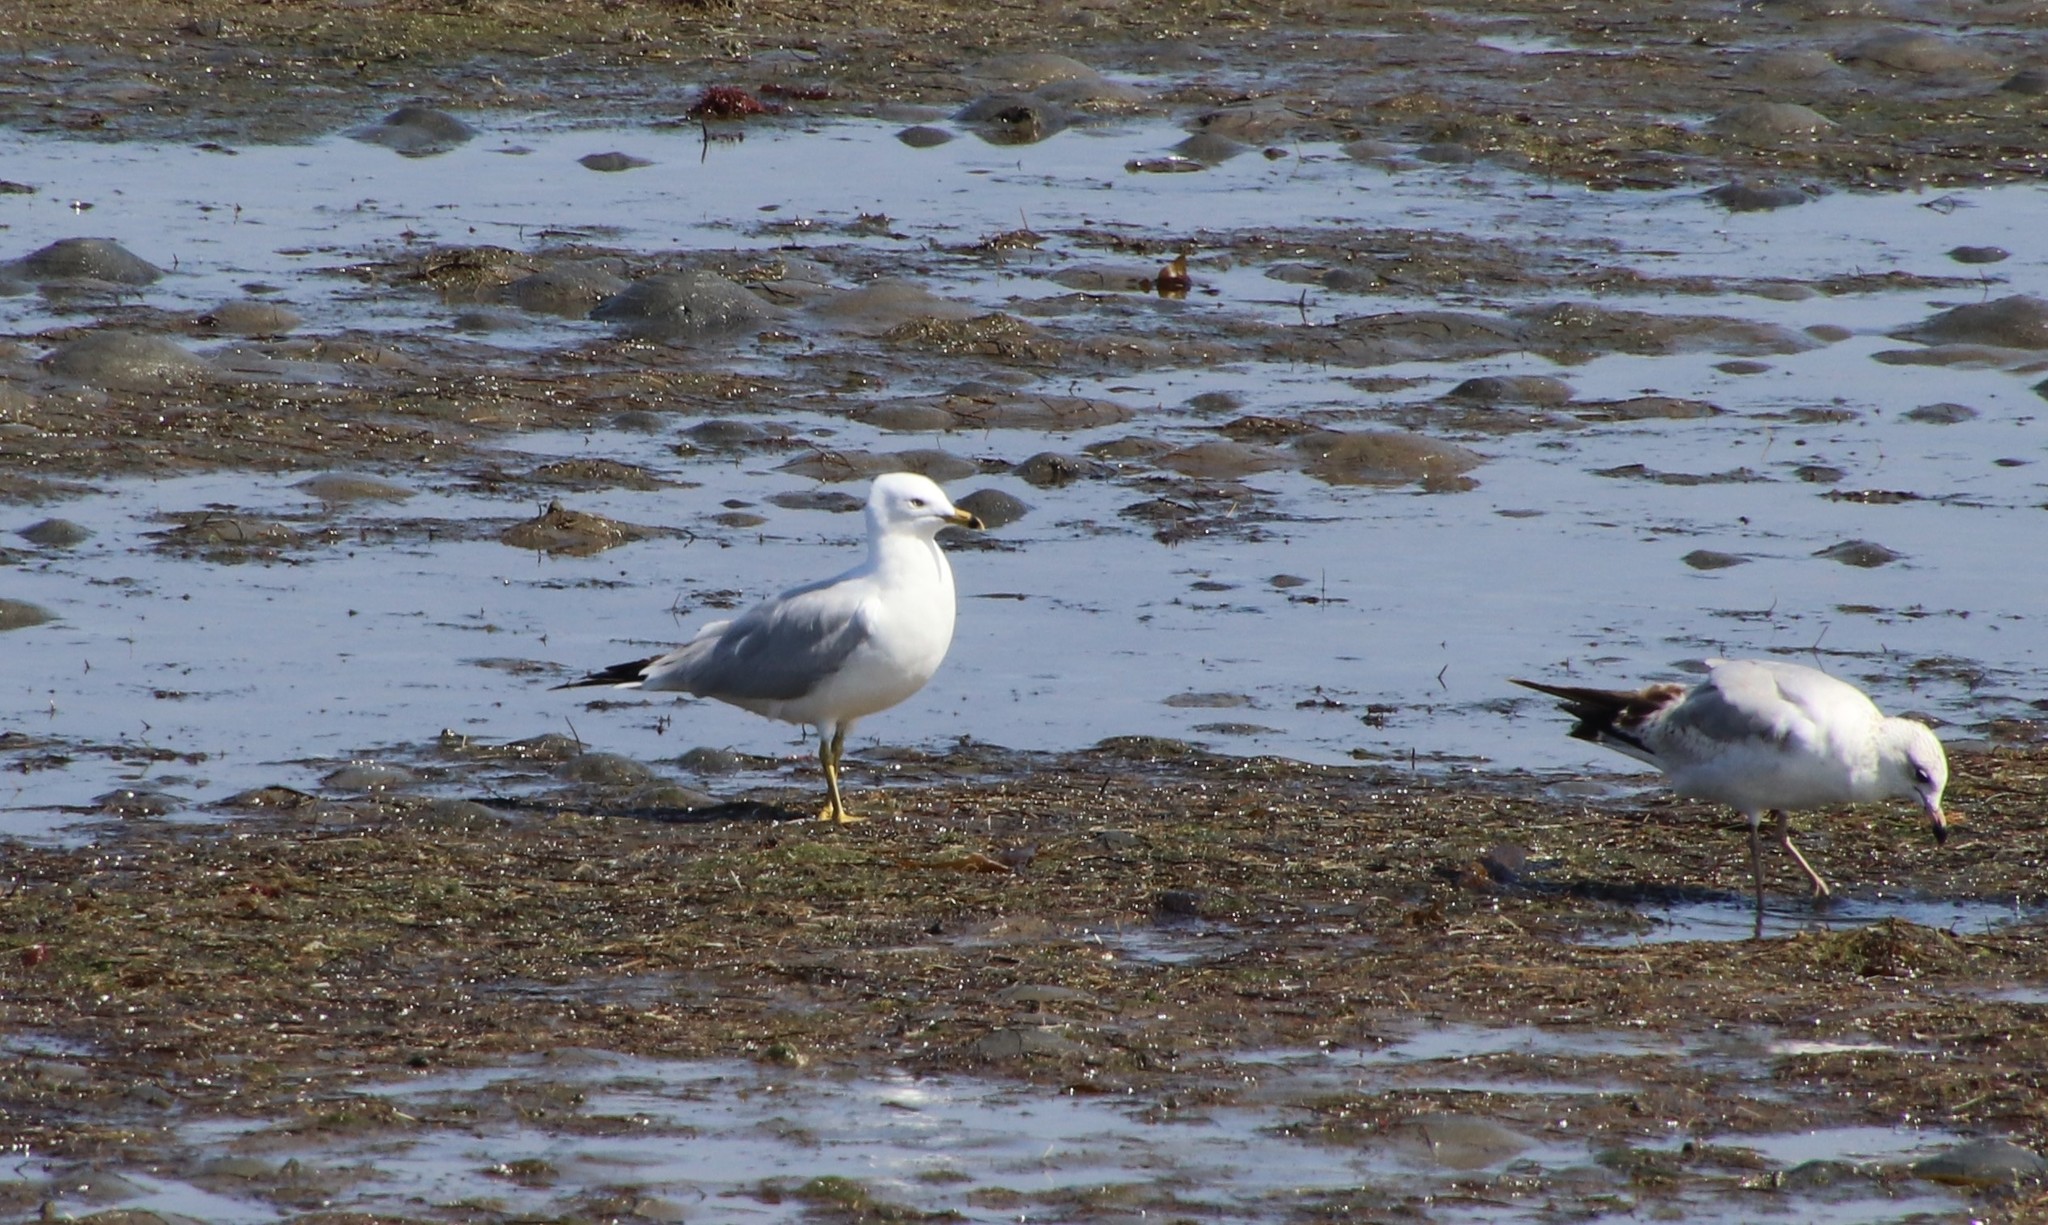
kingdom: Animalia
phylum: Chordata
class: Aves
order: Charadriiformes
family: Laridae
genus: Larus
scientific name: Larus delawarensis
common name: Ring-billed gull
